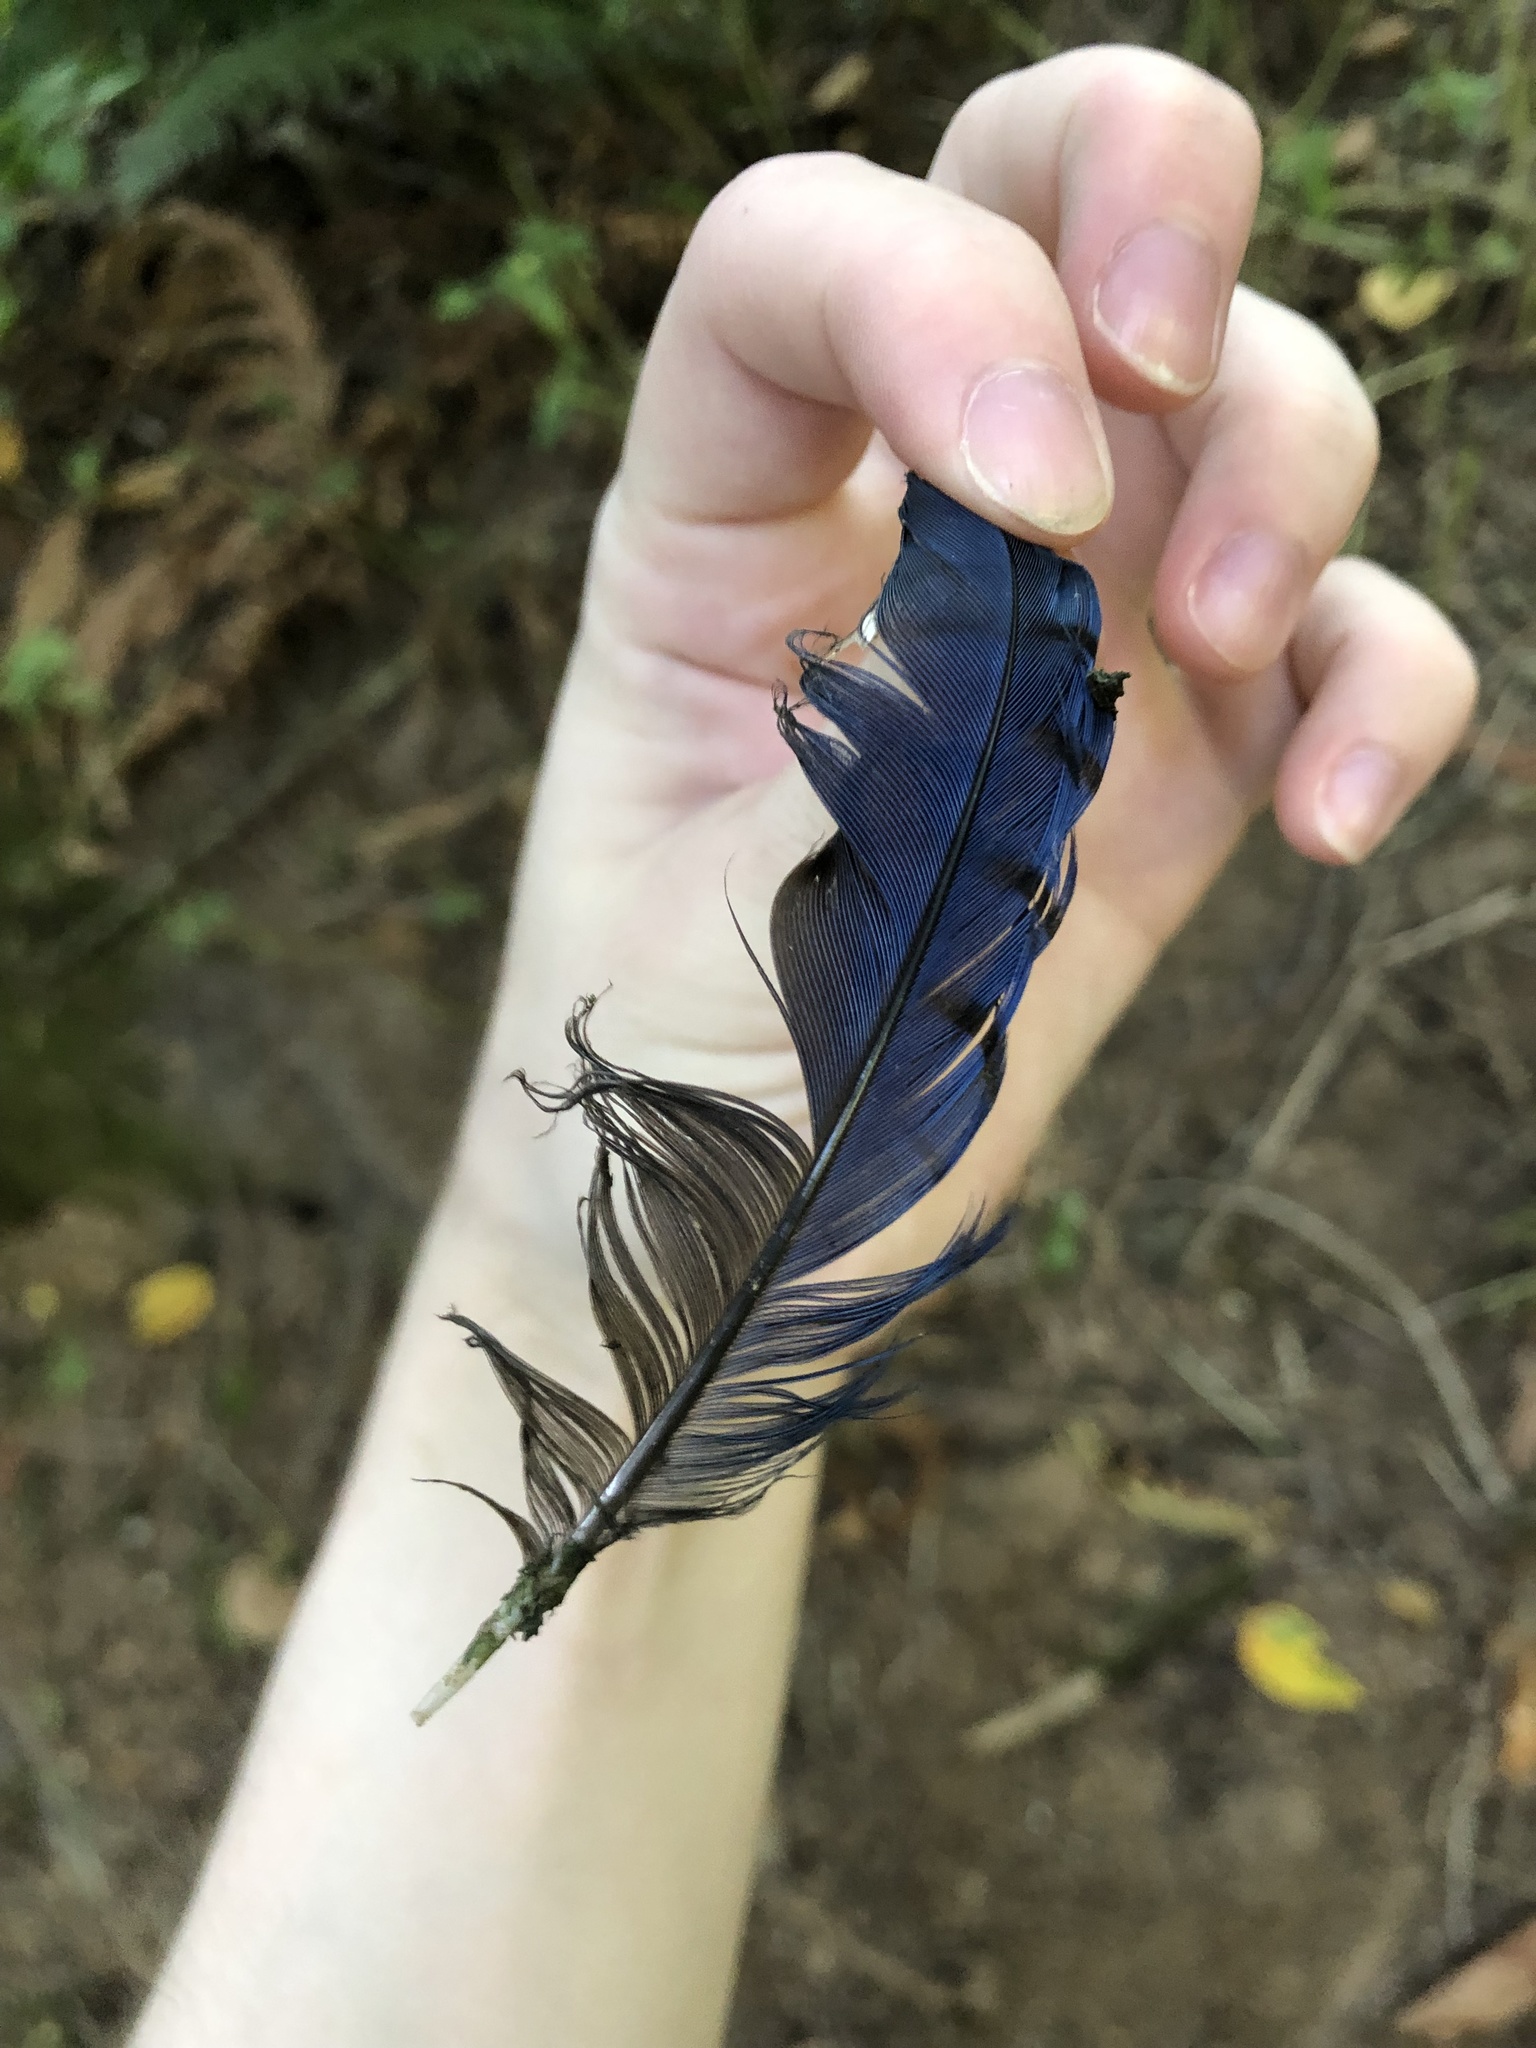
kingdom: Animalia
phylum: Chordata
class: Aves
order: Passeriformes
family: Corvidae
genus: Cyanocitta
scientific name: Cyanocitta stelleri
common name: Steller's jay
